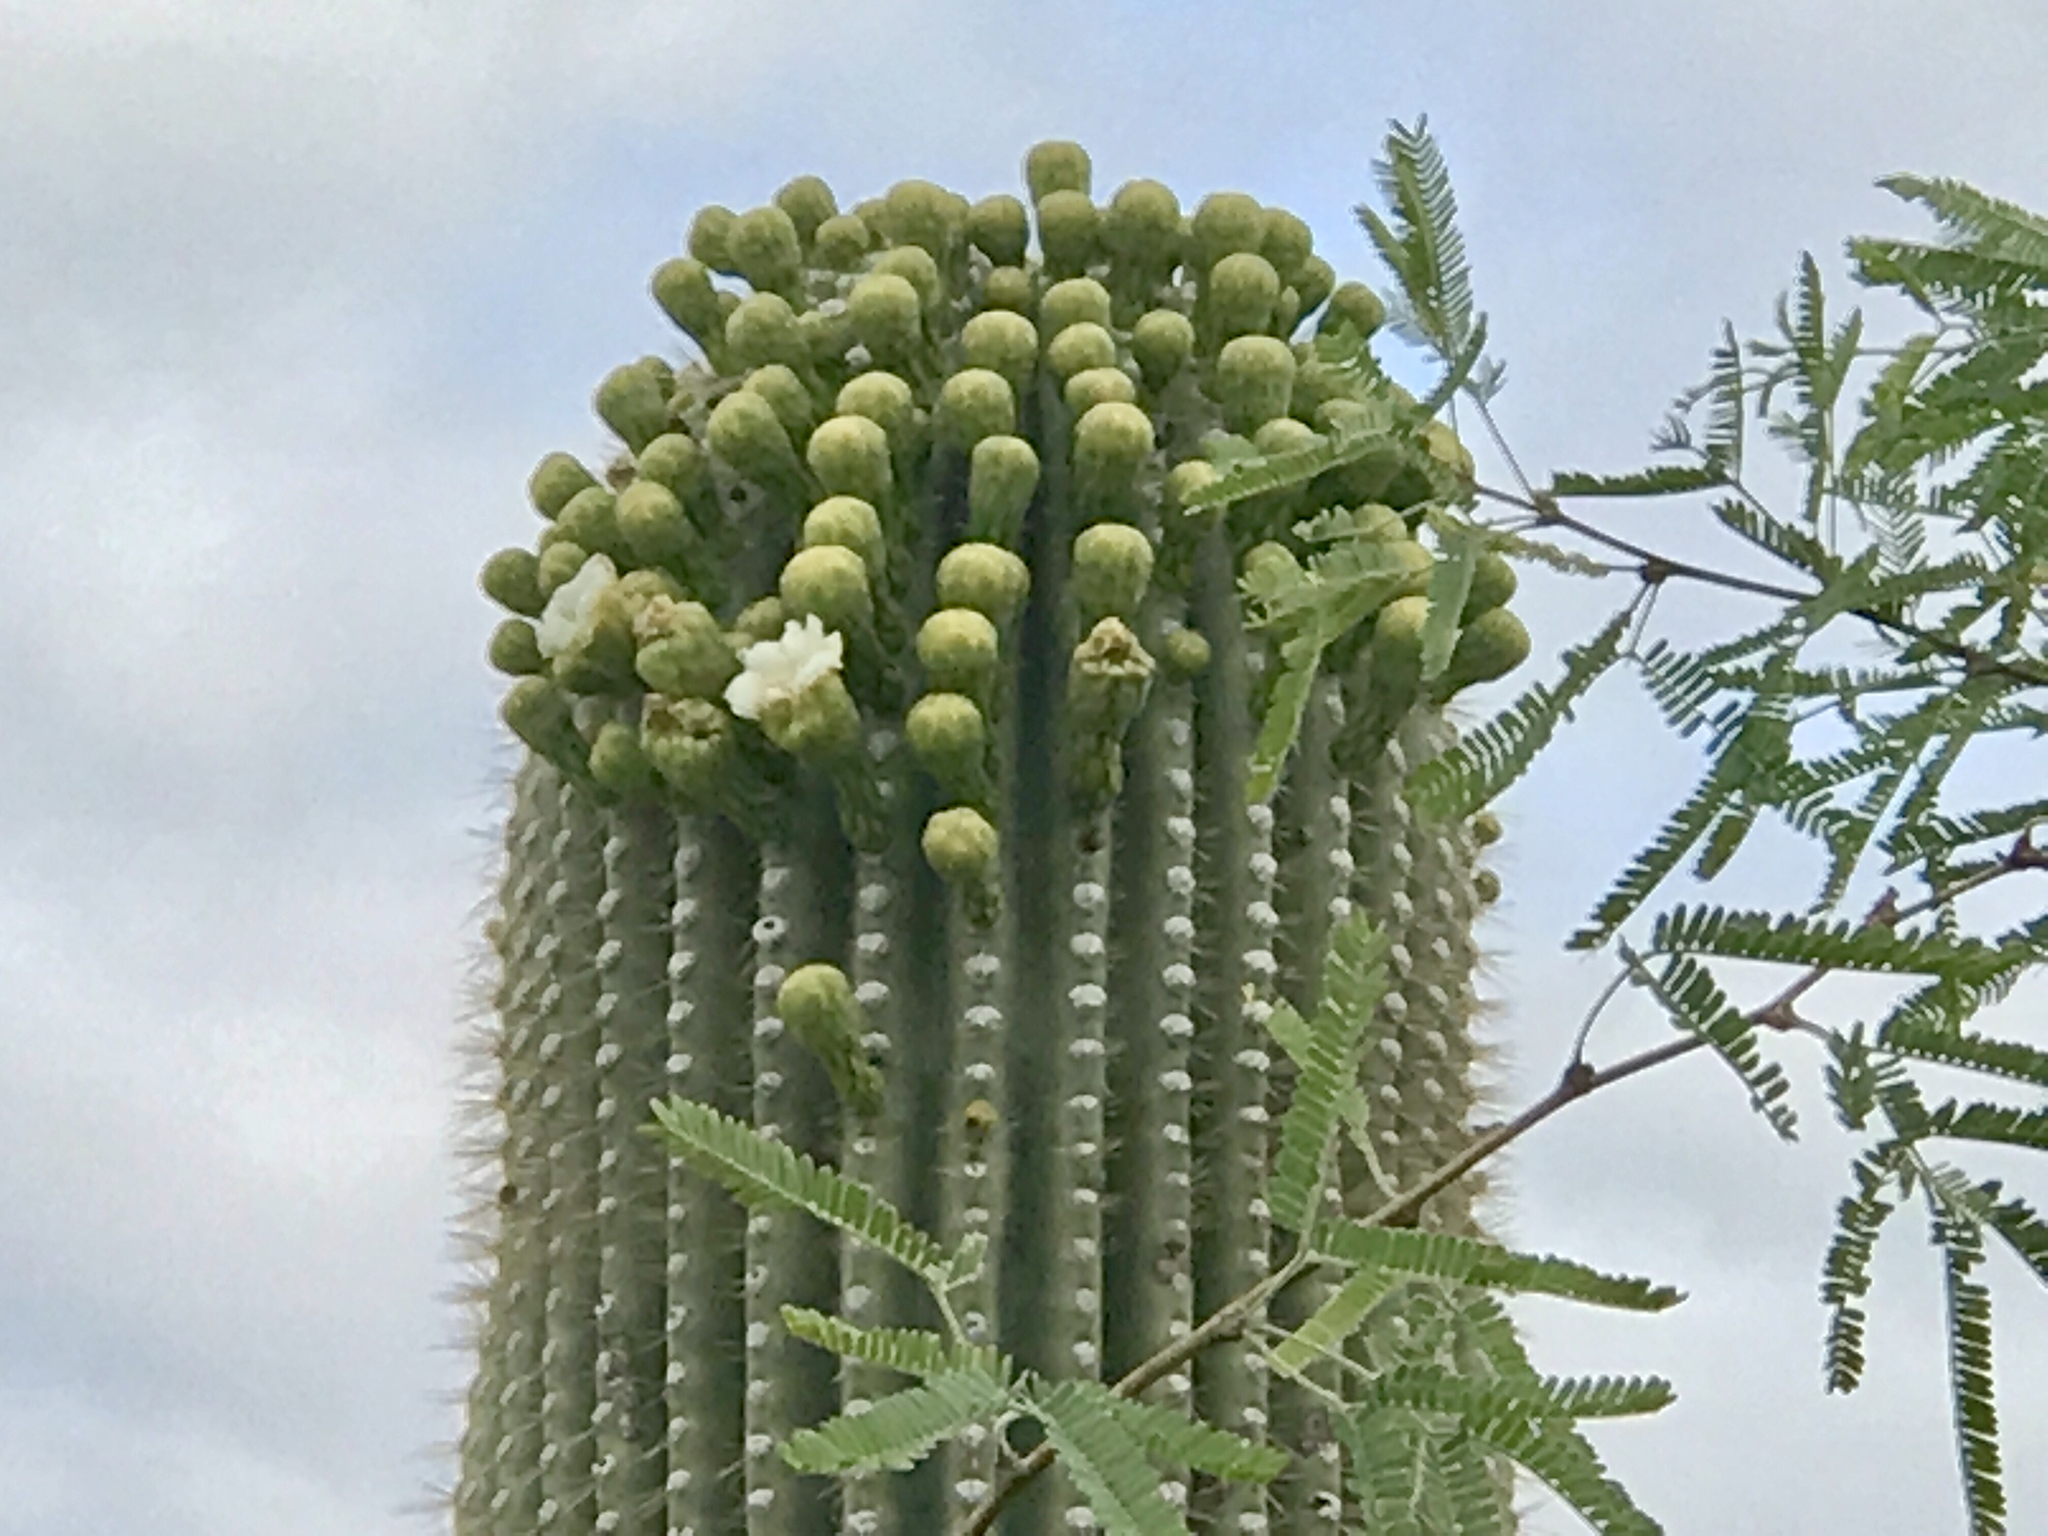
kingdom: Plantae
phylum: Tracheophyta
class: Magnoliopsida
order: Caryophyllales
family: Cactaceae
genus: Carnegiea
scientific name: Carnegiea gigantea
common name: Saguaro
